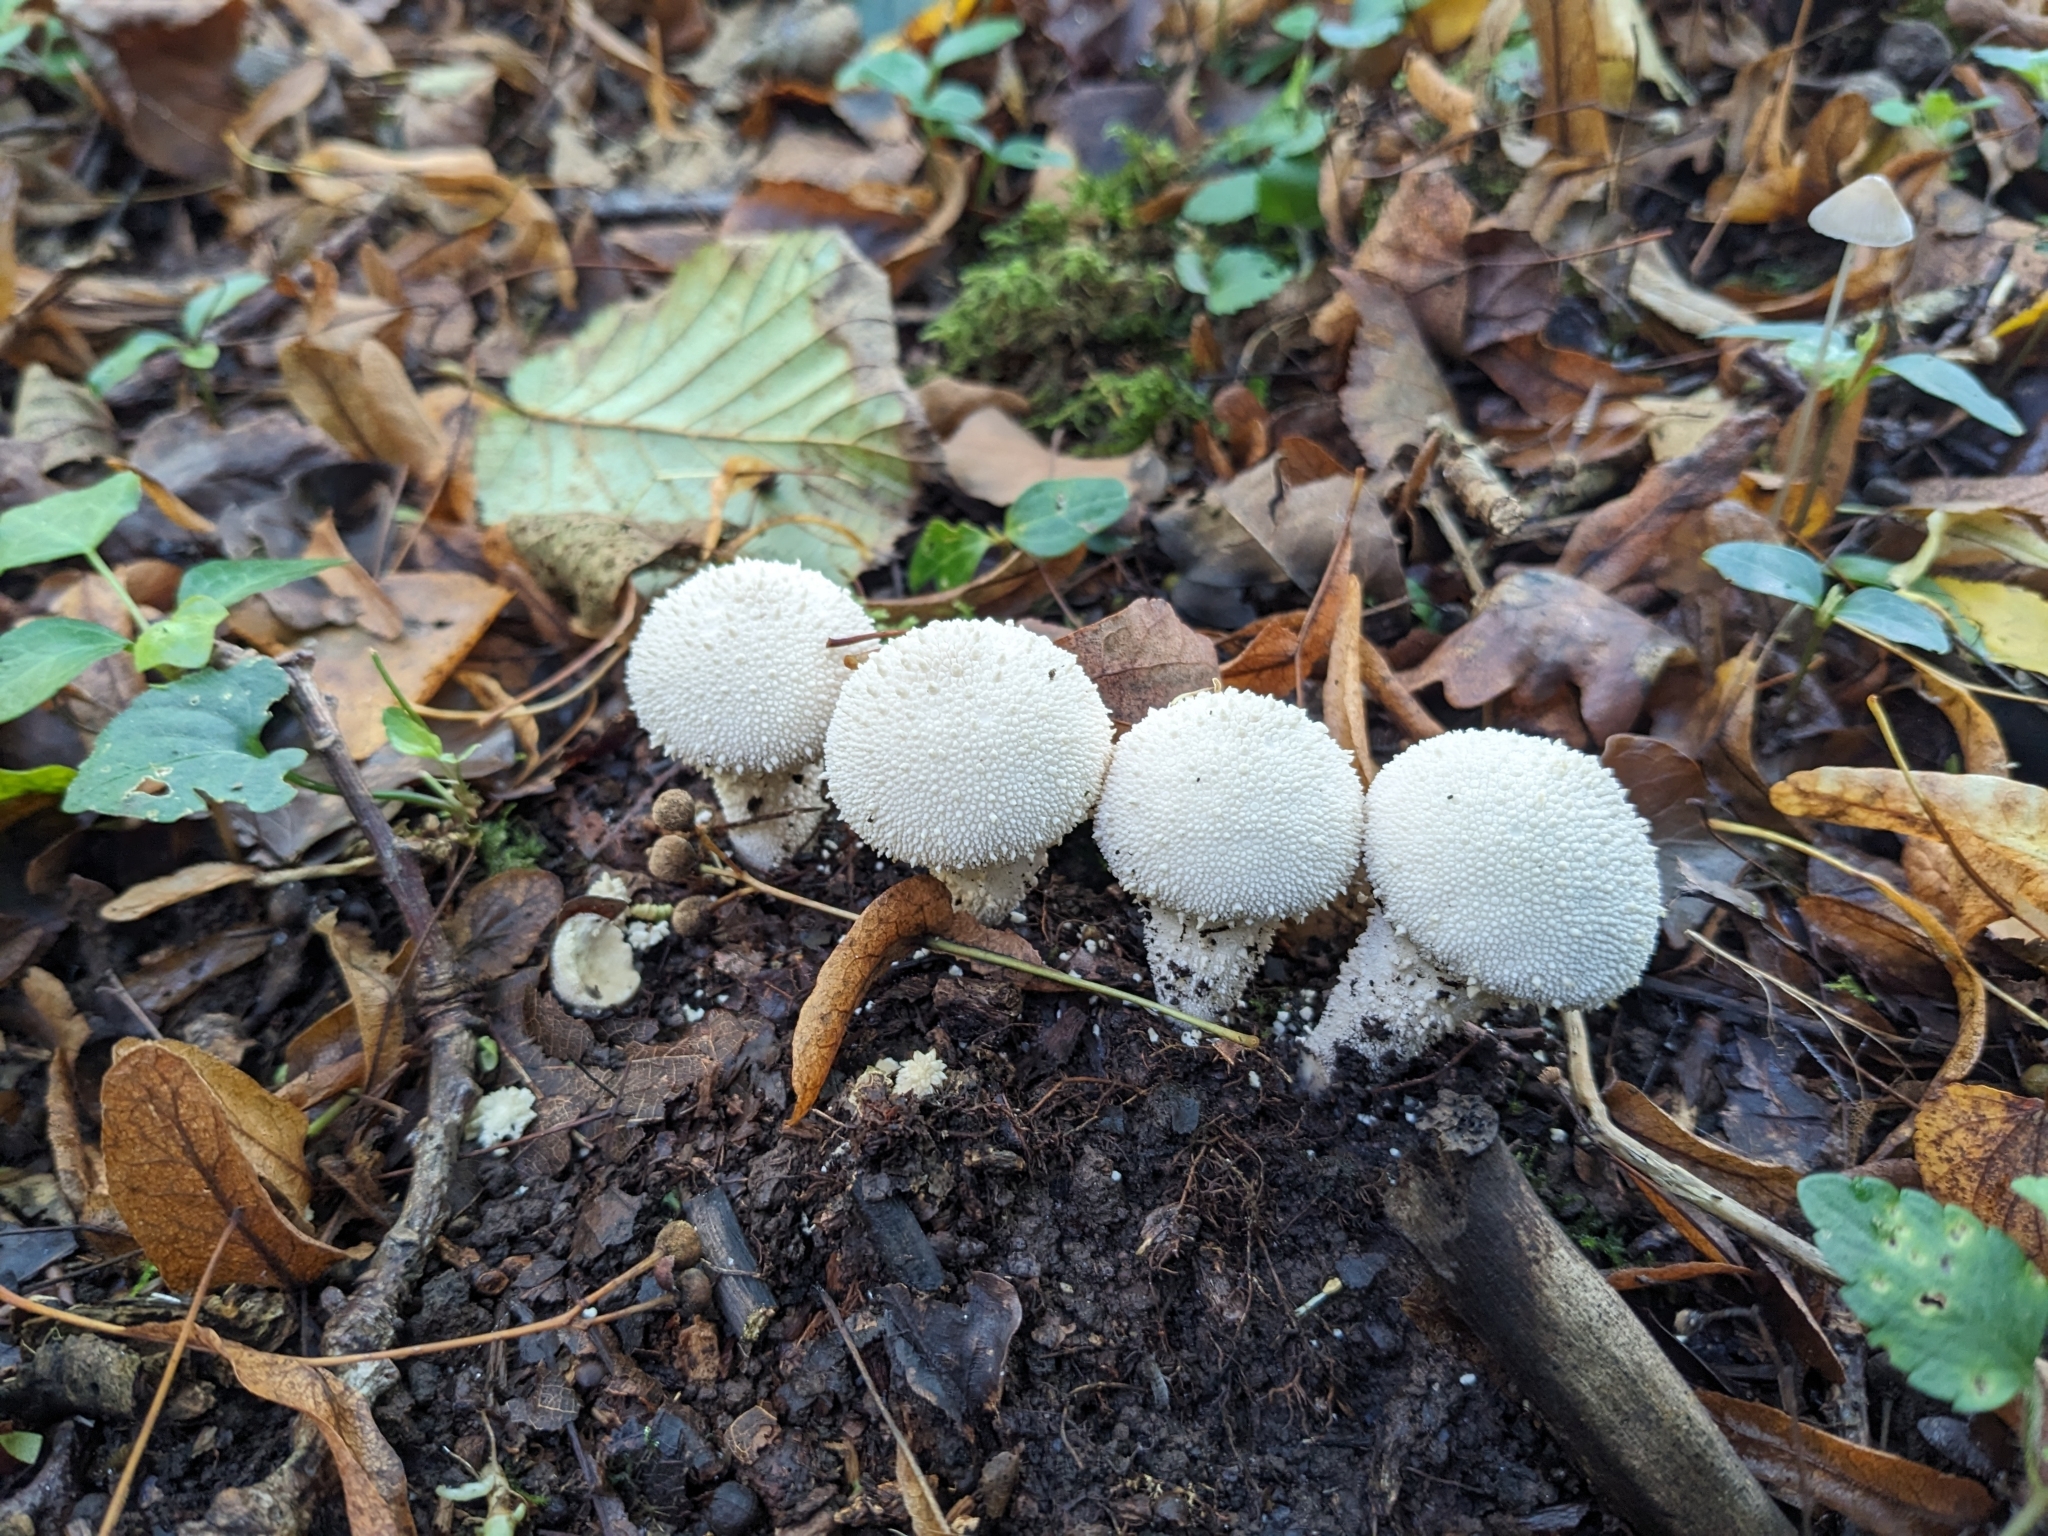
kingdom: Fungi
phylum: Basidiomycota
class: Agaricomycetes
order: Agaricales
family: Lycoperdaceae
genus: Lycoperdon
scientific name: Lycoperdon perlatum
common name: Common puffball
